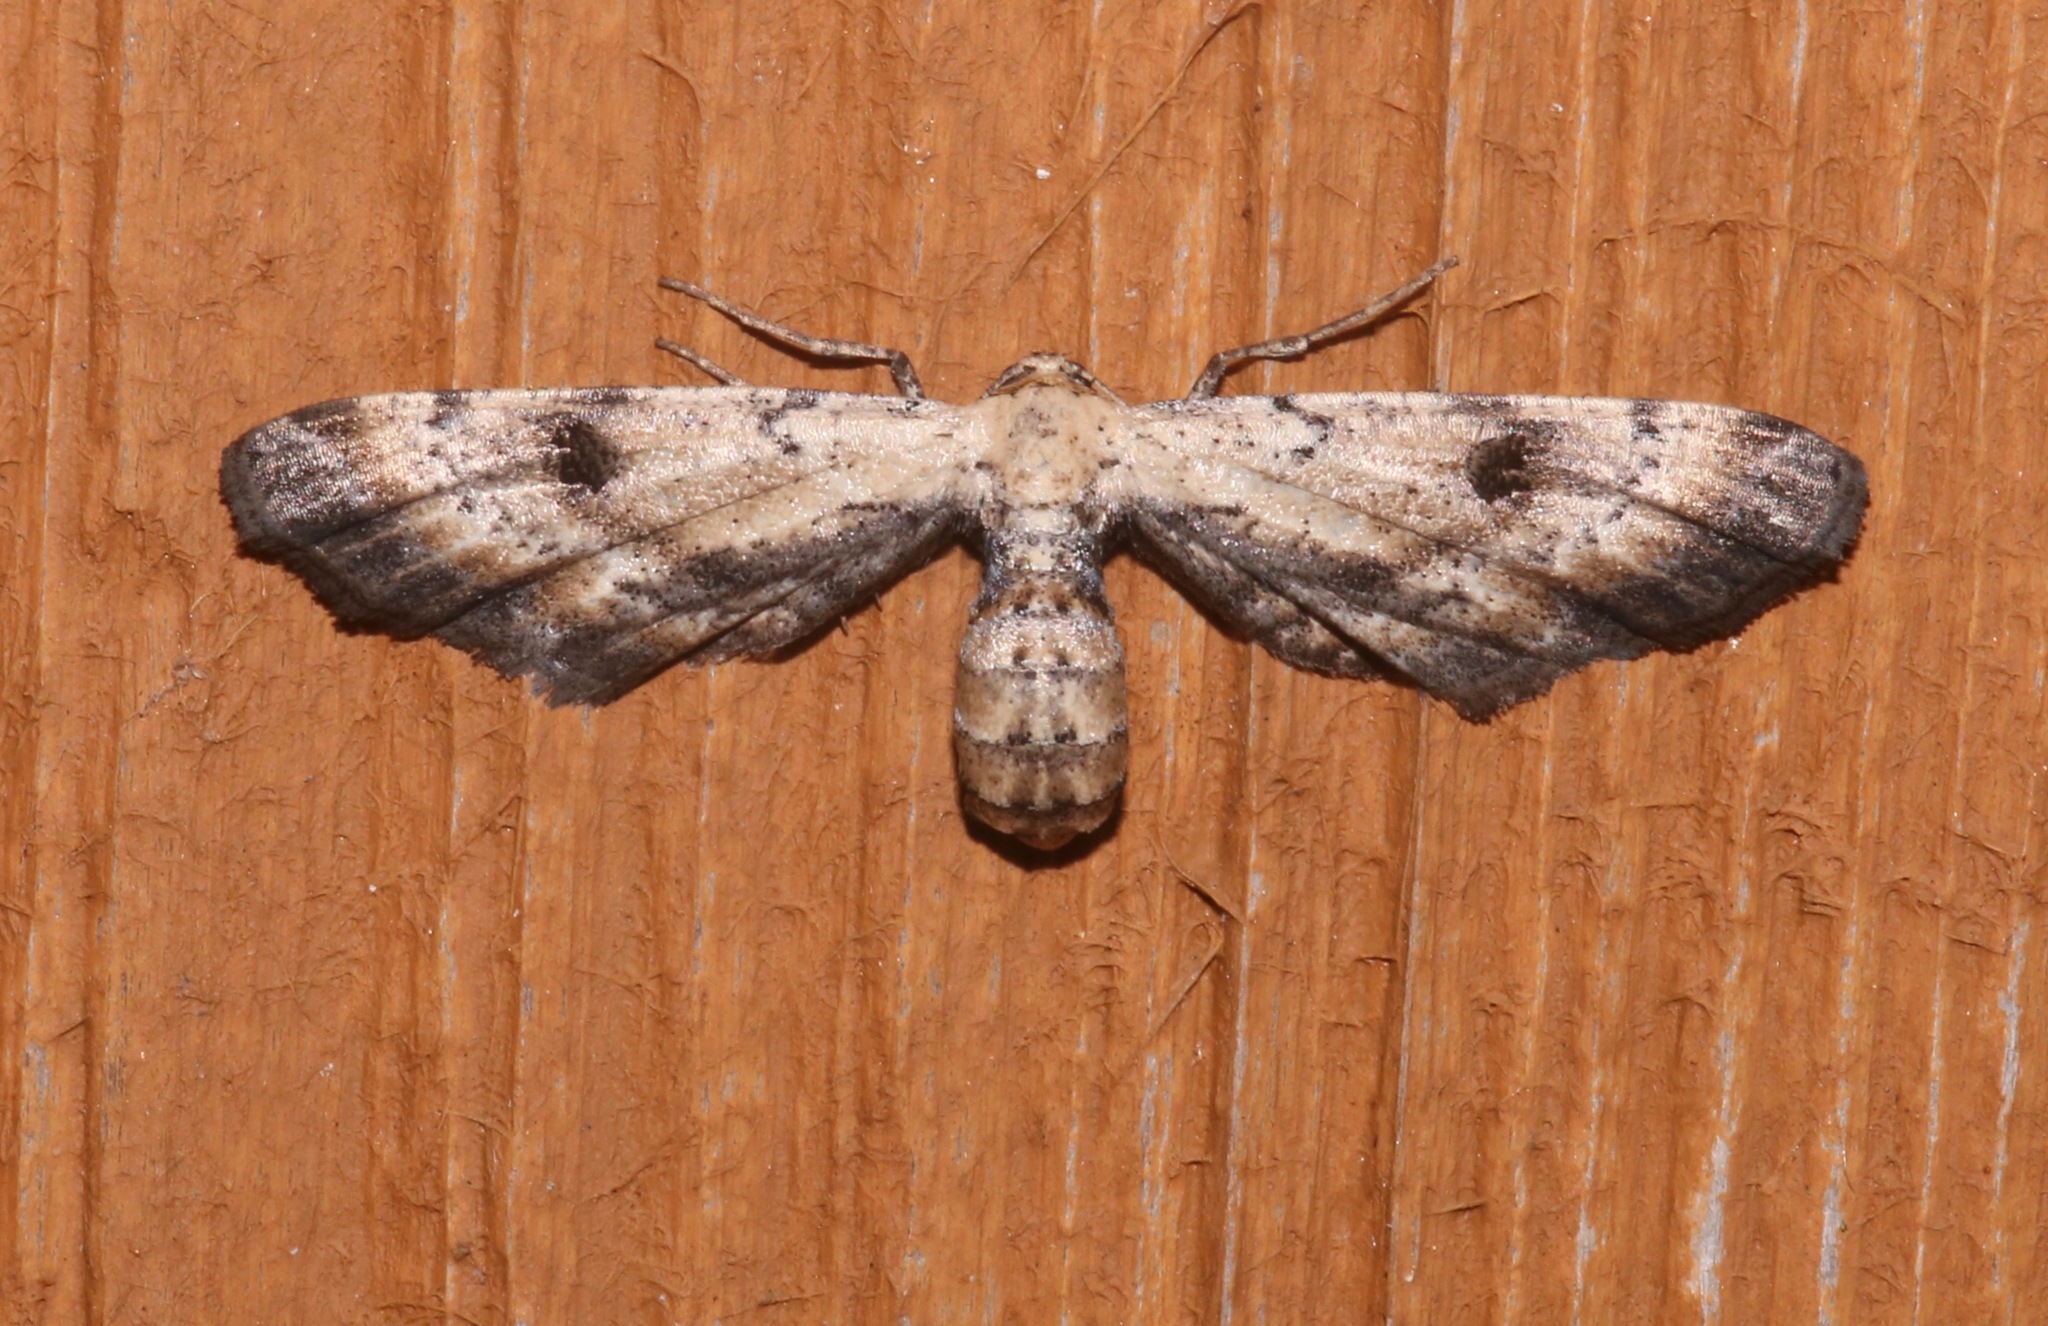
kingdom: Animalia
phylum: Arthropoda
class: Insecta
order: Lepidoptera
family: Geometridae
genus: Tornos
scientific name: Tornos scolopacinaria
